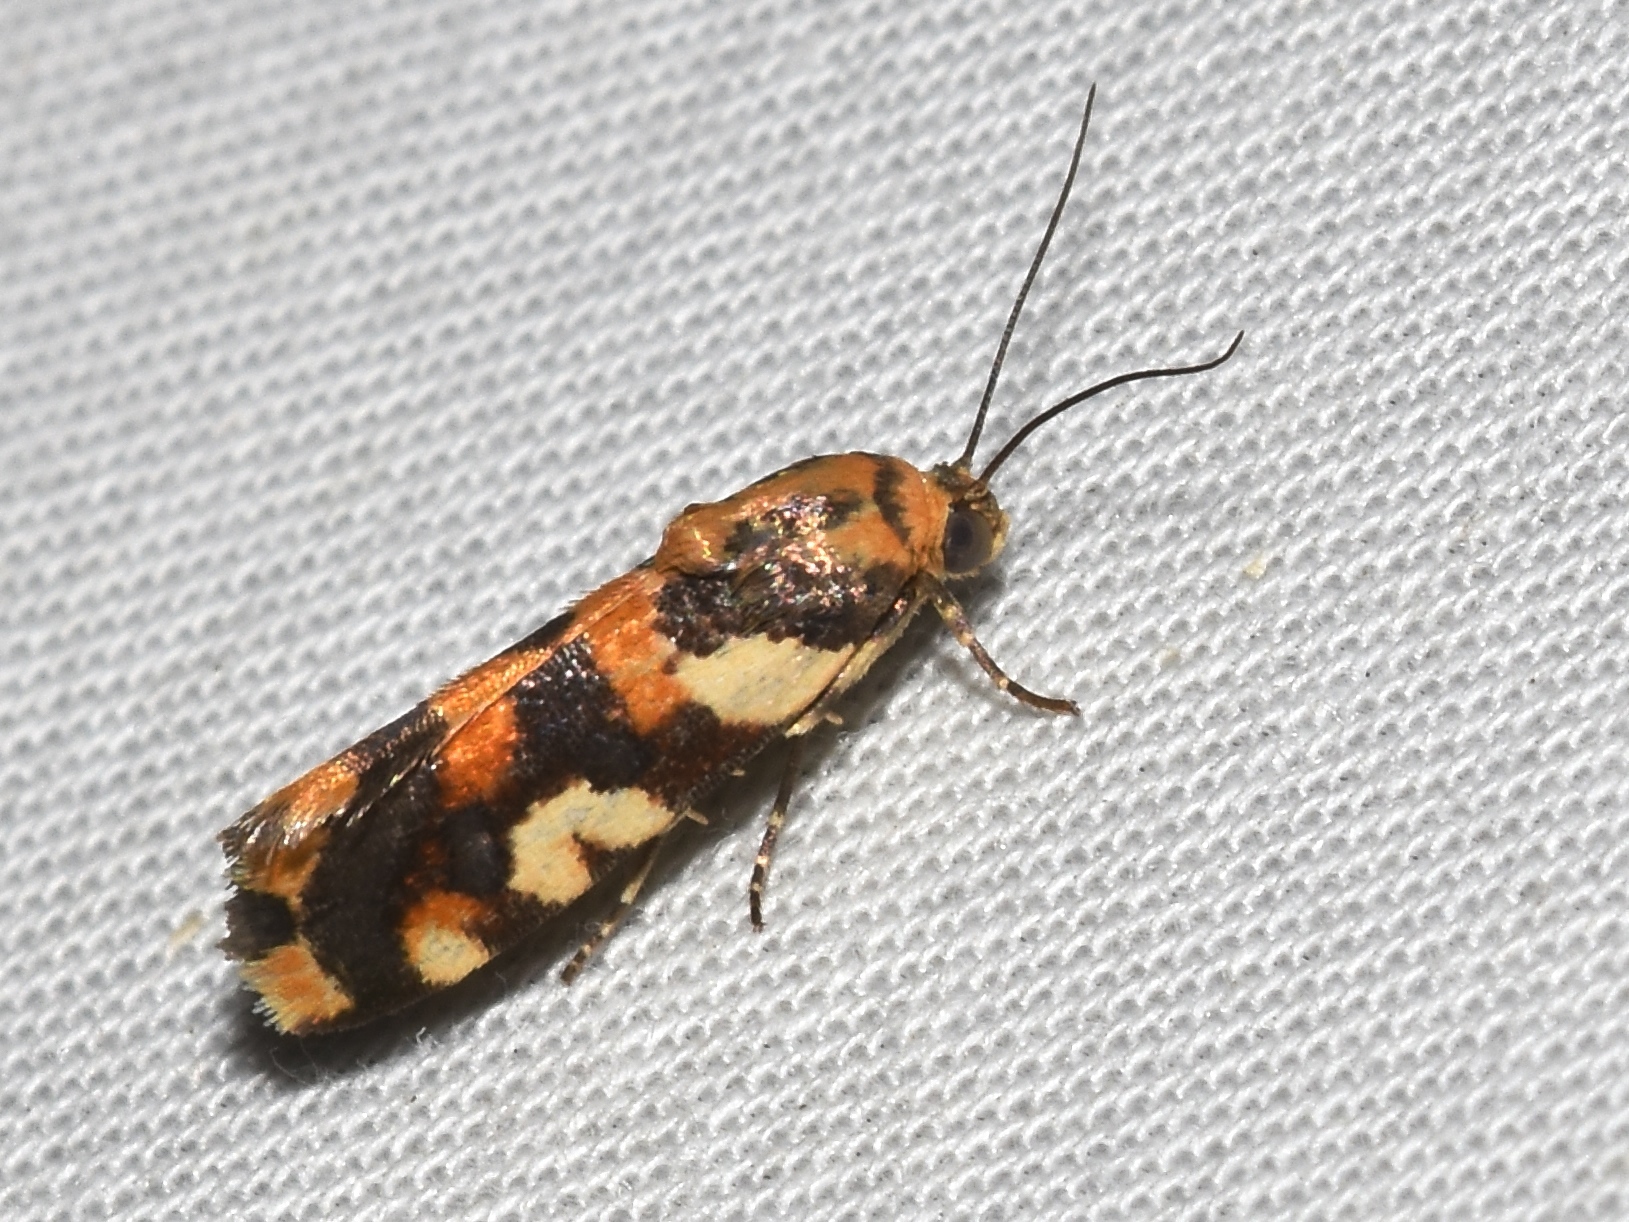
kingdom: Animalia
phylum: Arthropoda
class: Insecta
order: Lepidoptera
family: Noctuidae
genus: Acontia
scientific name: Acontia dama
